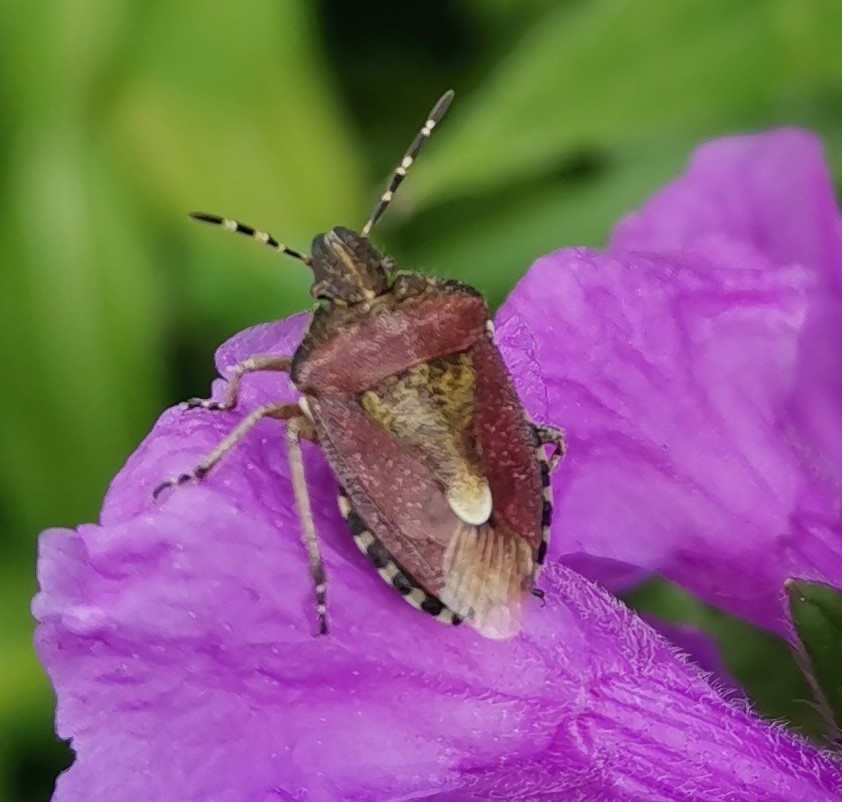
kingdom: Animalia
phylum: Arthropoda
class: Insecta
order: Hemiptera
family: Pentatomidae
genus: Dolycoris
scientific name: Dolycoris baccarum
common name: Sloe bug
